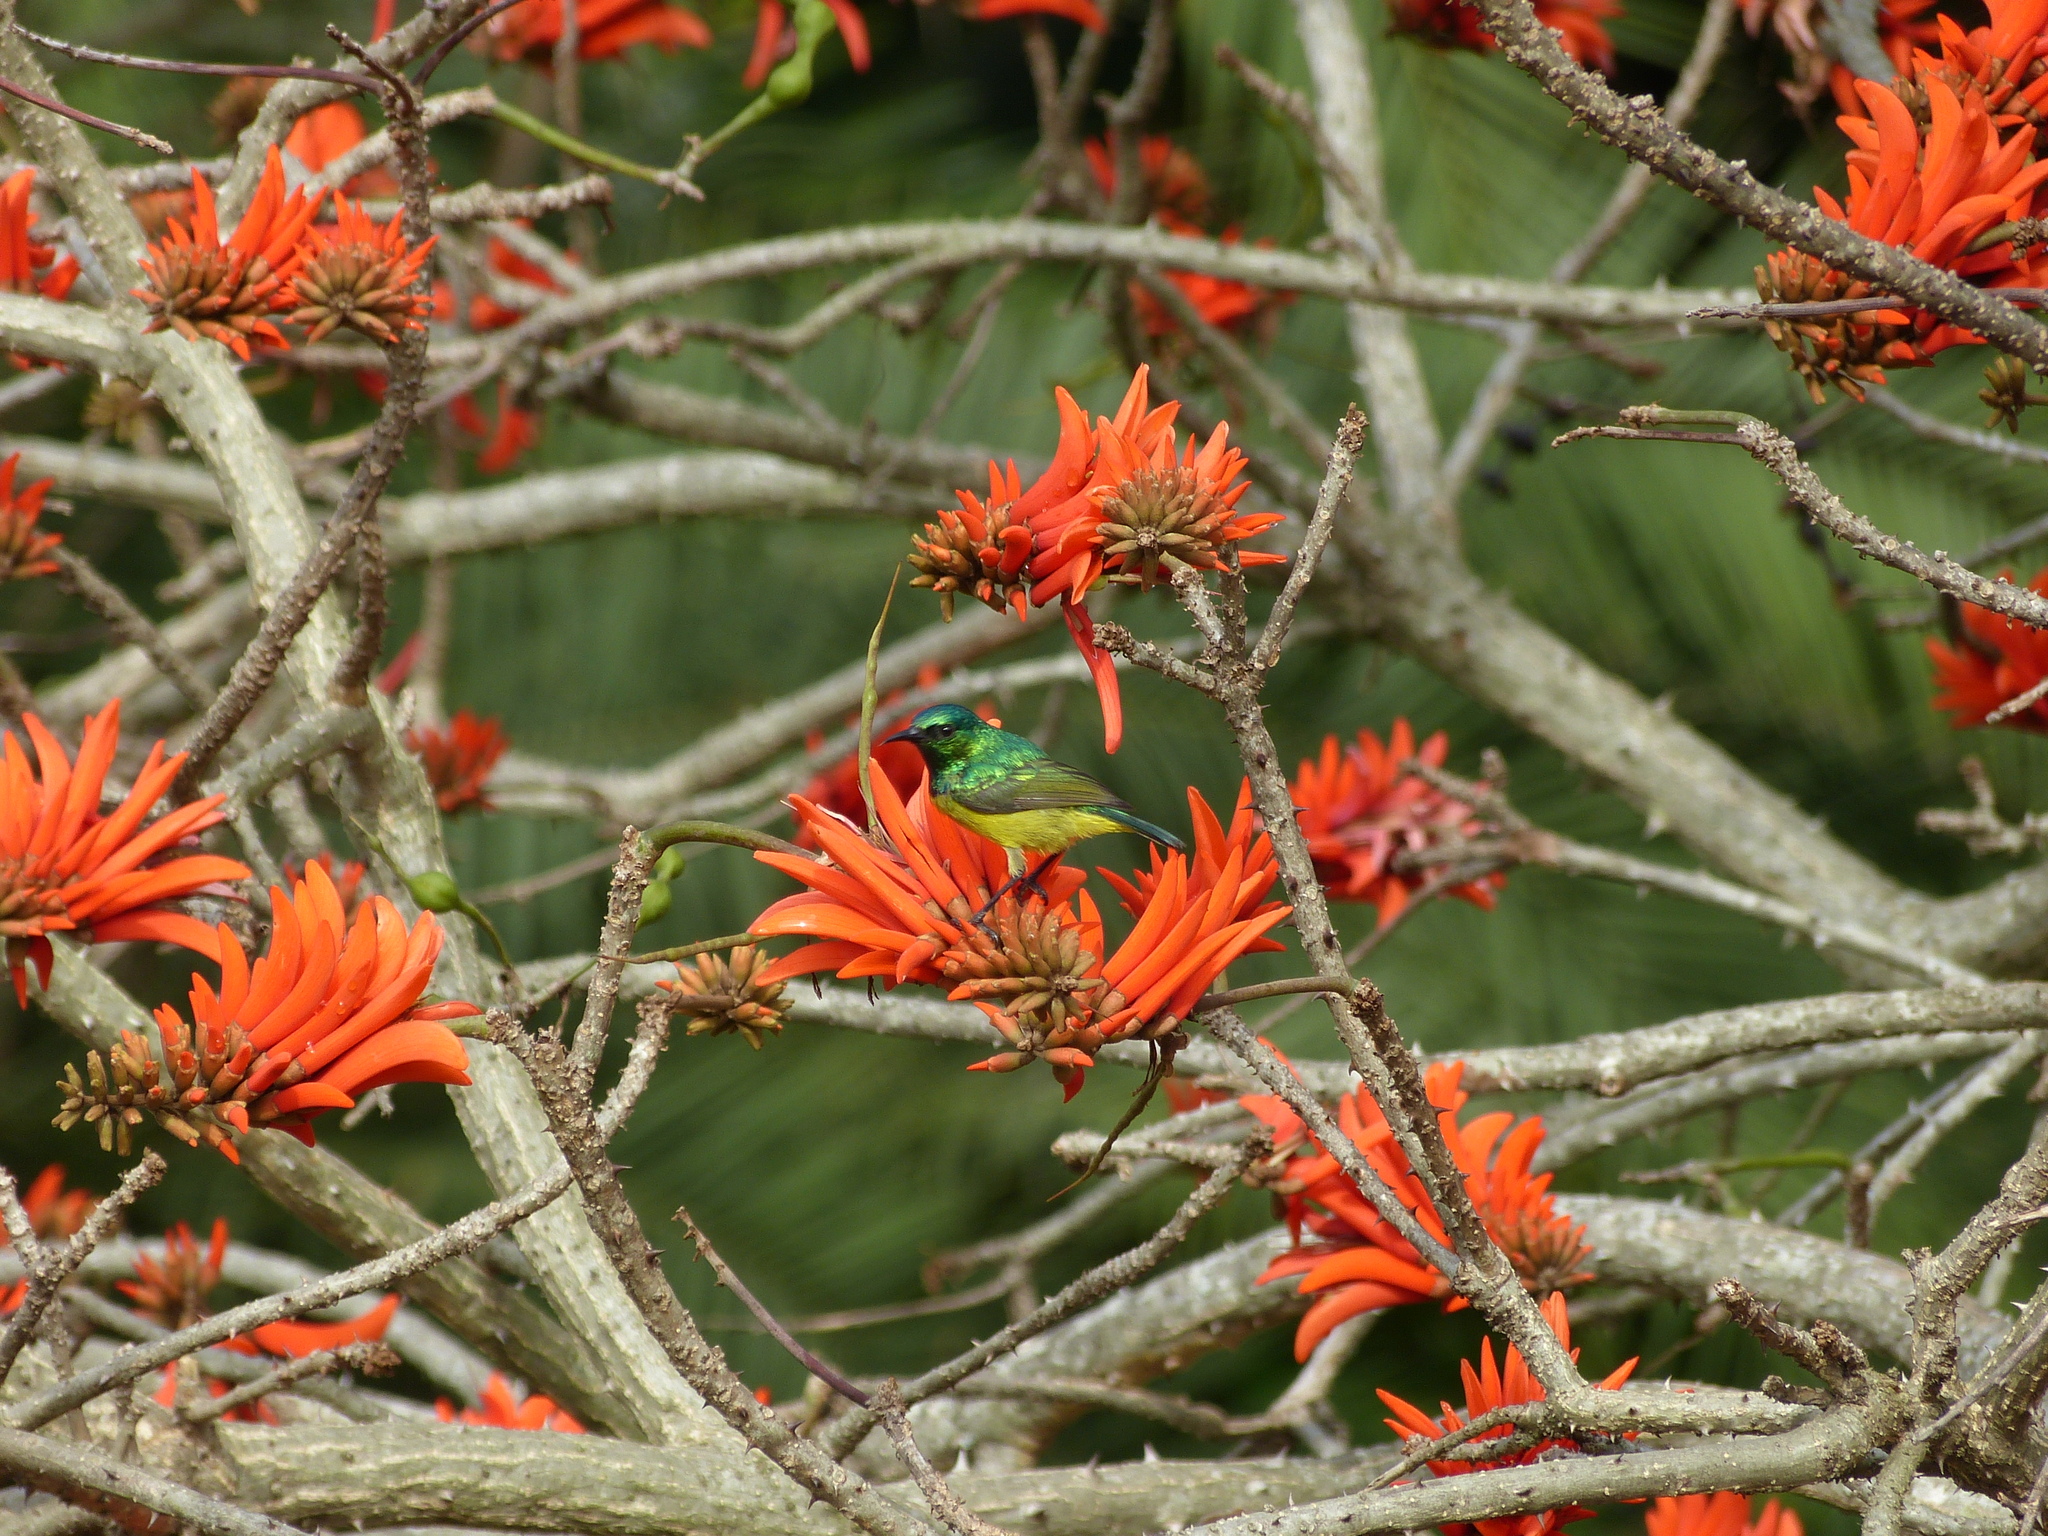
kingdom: Animalia
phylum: Chordata
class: Aves
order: Passeriformes
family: Nectariniidae
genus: Hedydipna
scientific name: Hedydipna collaris
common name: Collared sunbird
